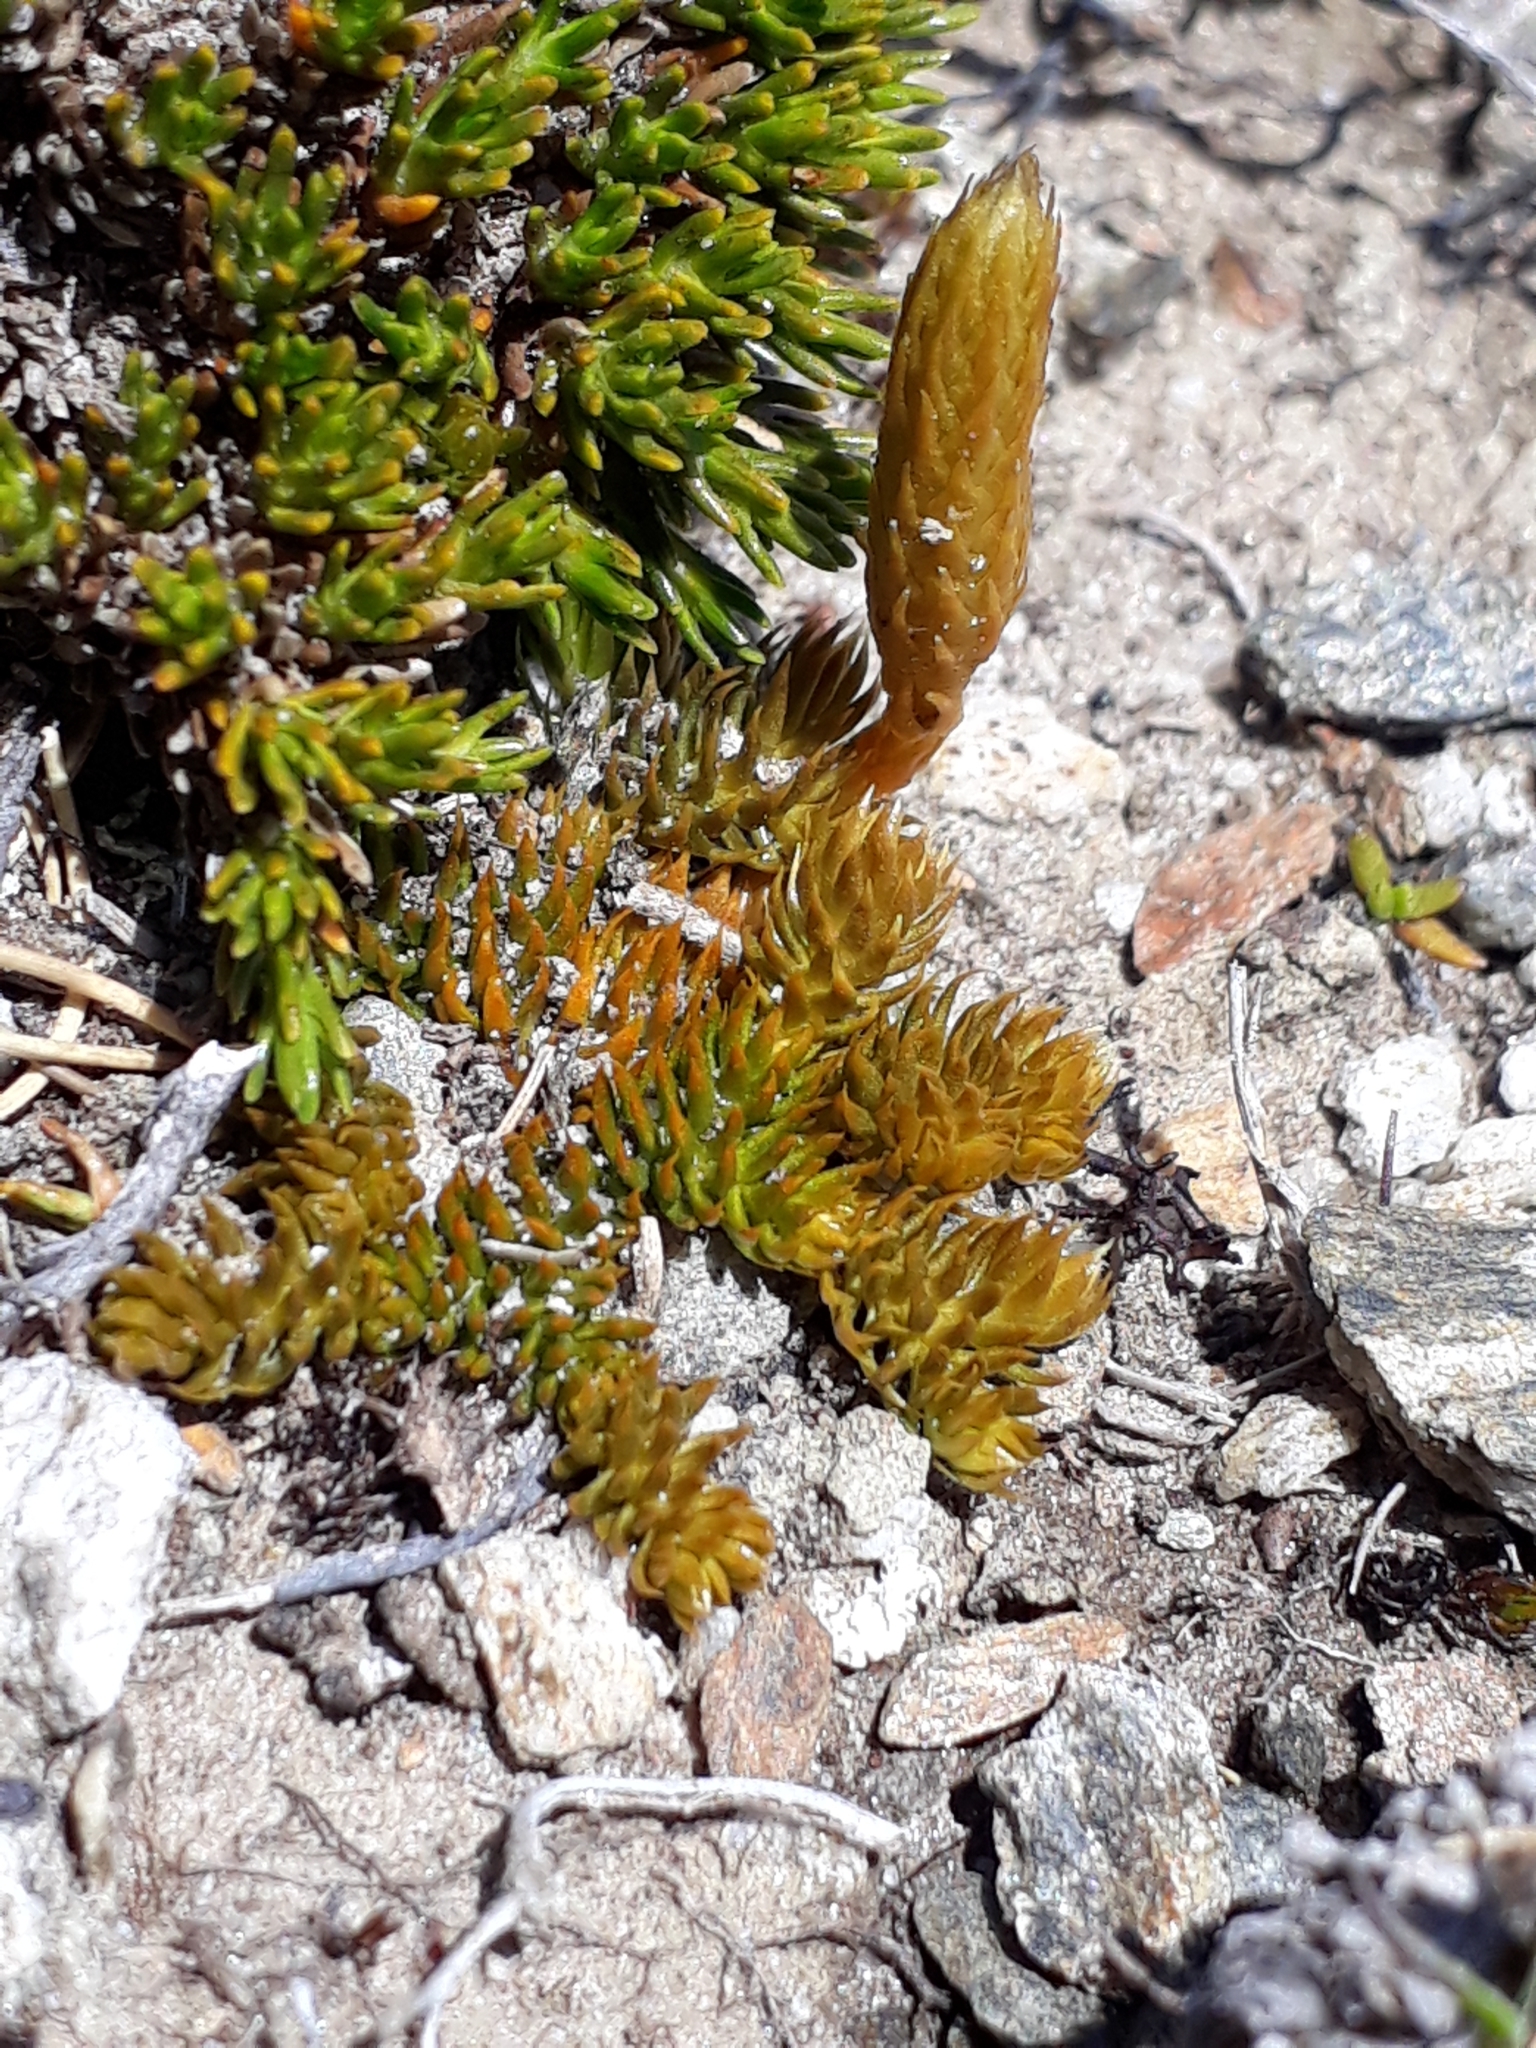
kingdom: Plantae
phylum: Tracheophyta
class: Lycopodiopsida
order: Lycopodiales
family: Lycopodiaceae
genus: Austrolycopodium
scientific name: Austrolycopodium fastigiatum
